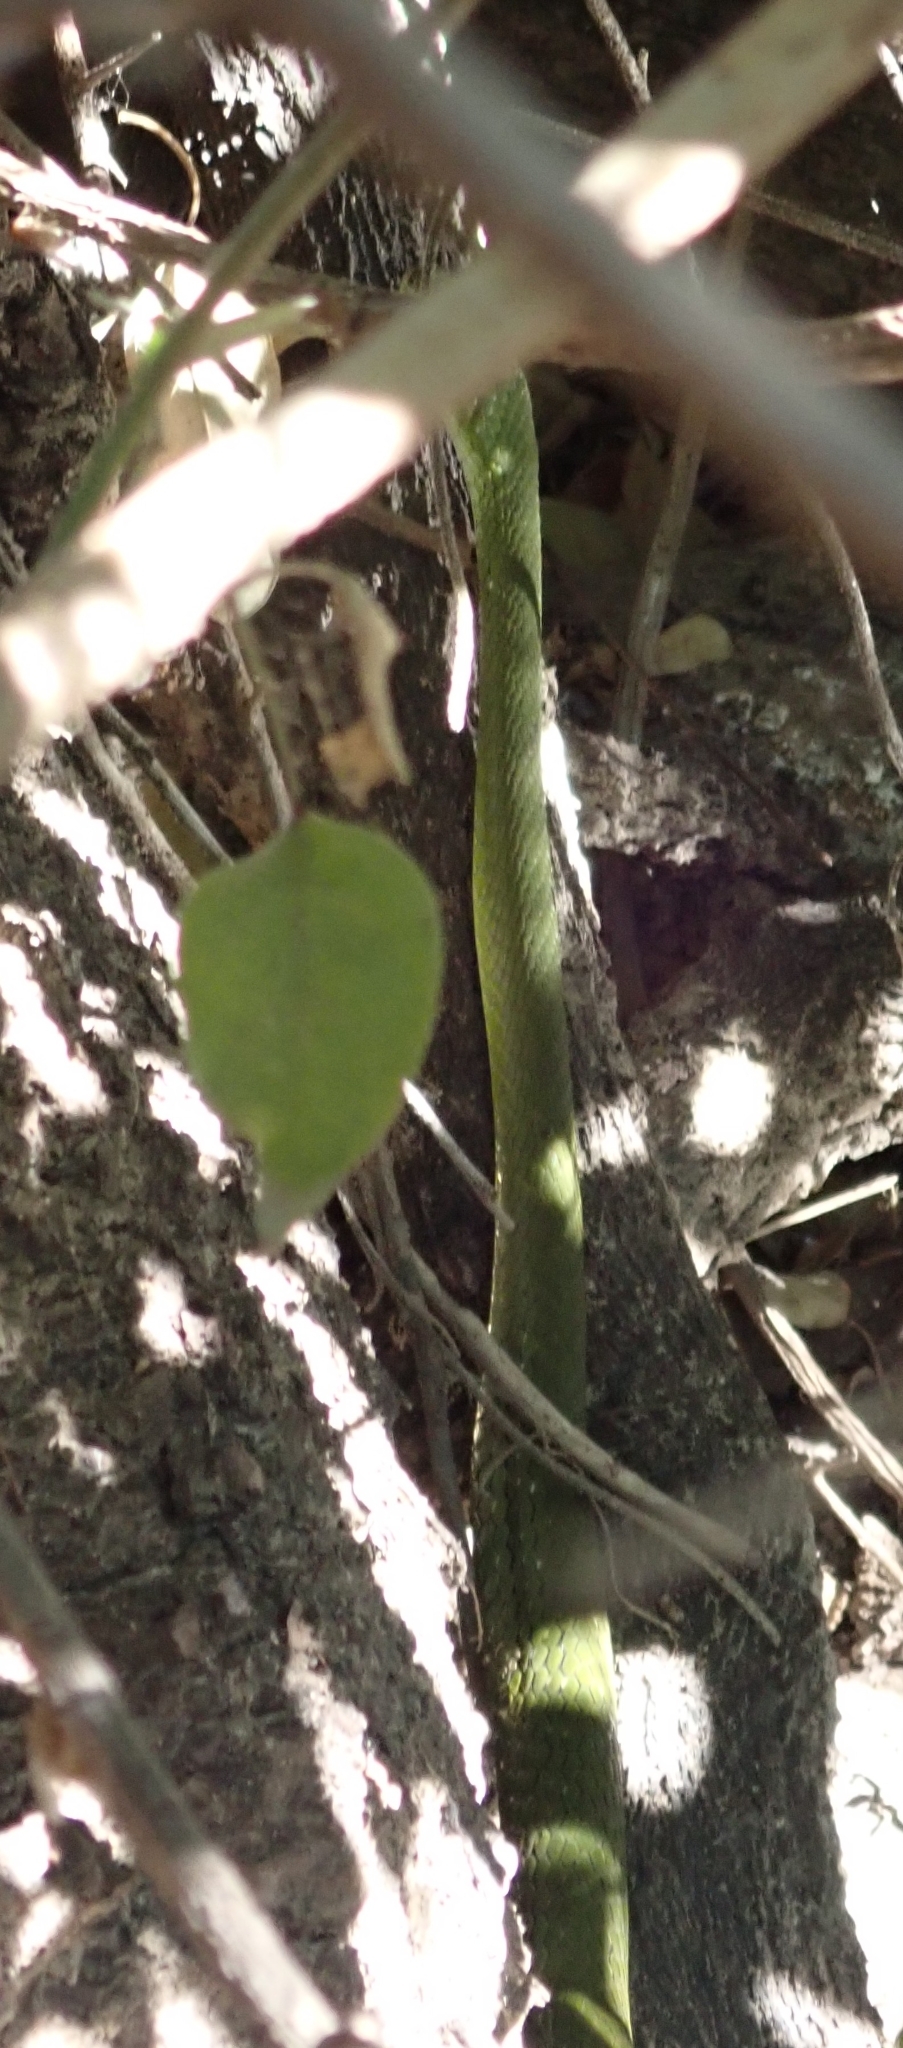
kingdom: Animalia
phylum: Chordata
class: Squamata
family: Colubridae
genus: Philothamnus
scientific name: Philothamnus angolensis
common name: Angola green snake
